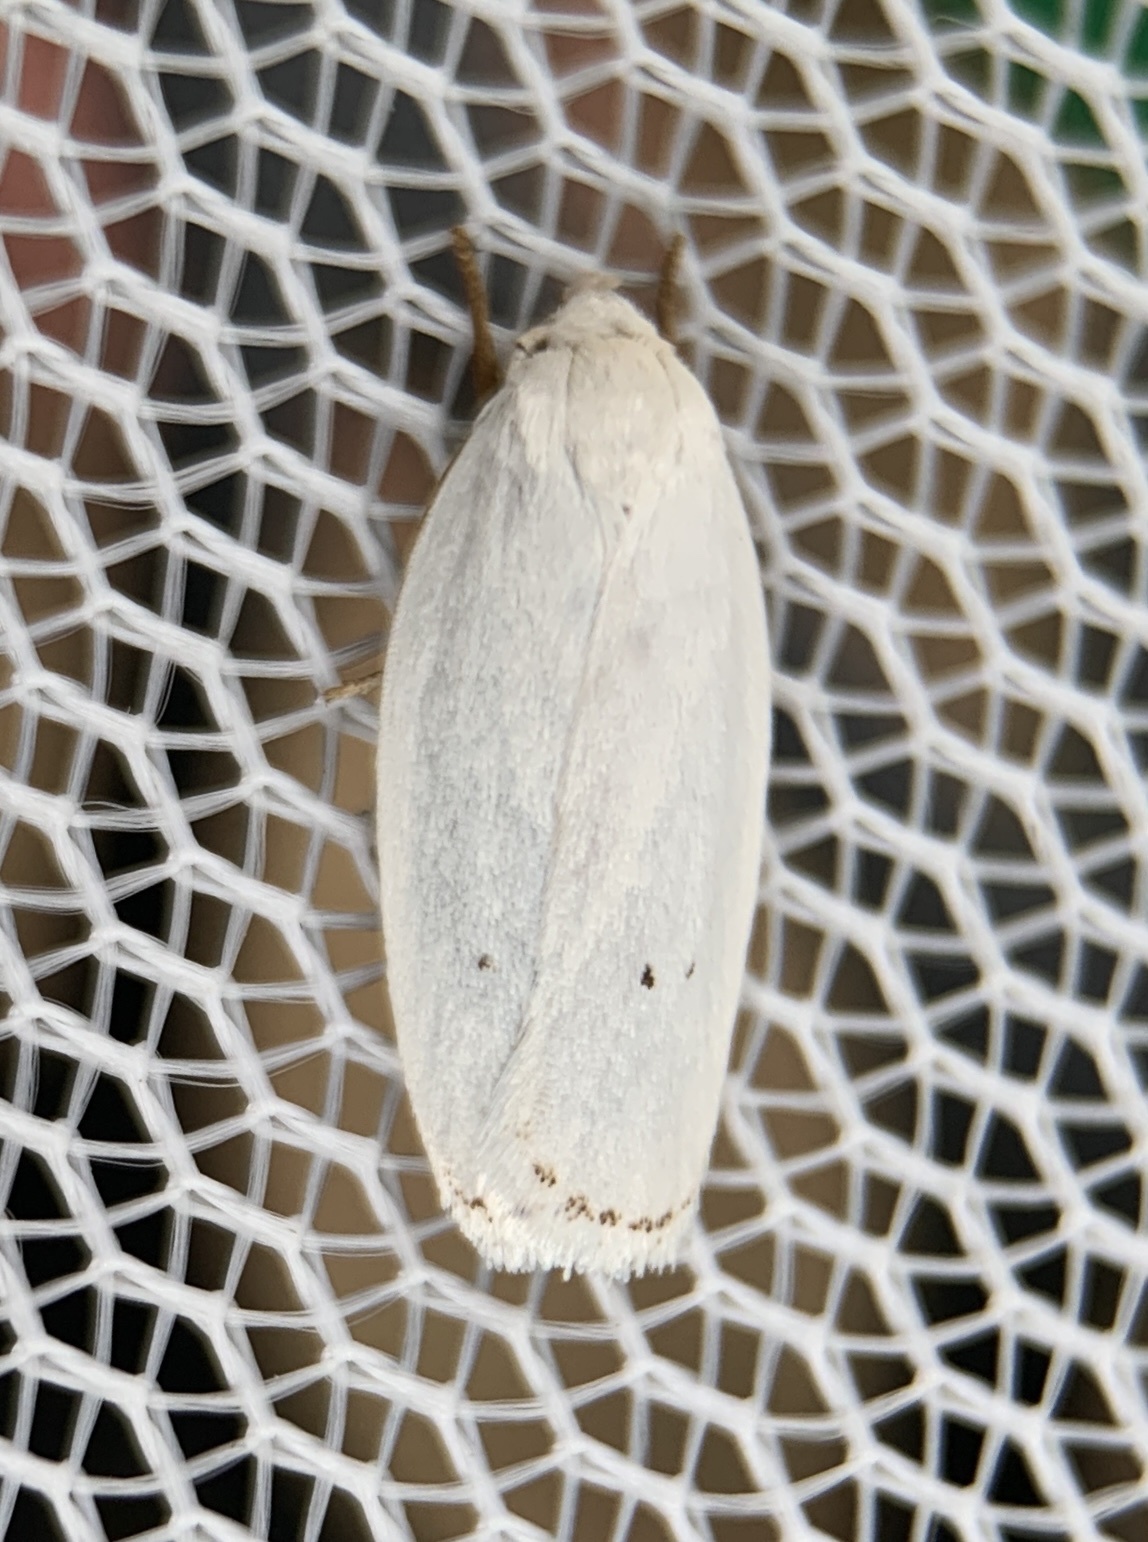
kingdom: Animalia
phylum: Arthropoda
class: Insecta
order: Lepidoptera
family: Depressariidae
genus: Antaeotricha
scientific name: Antaeotricha albulella
